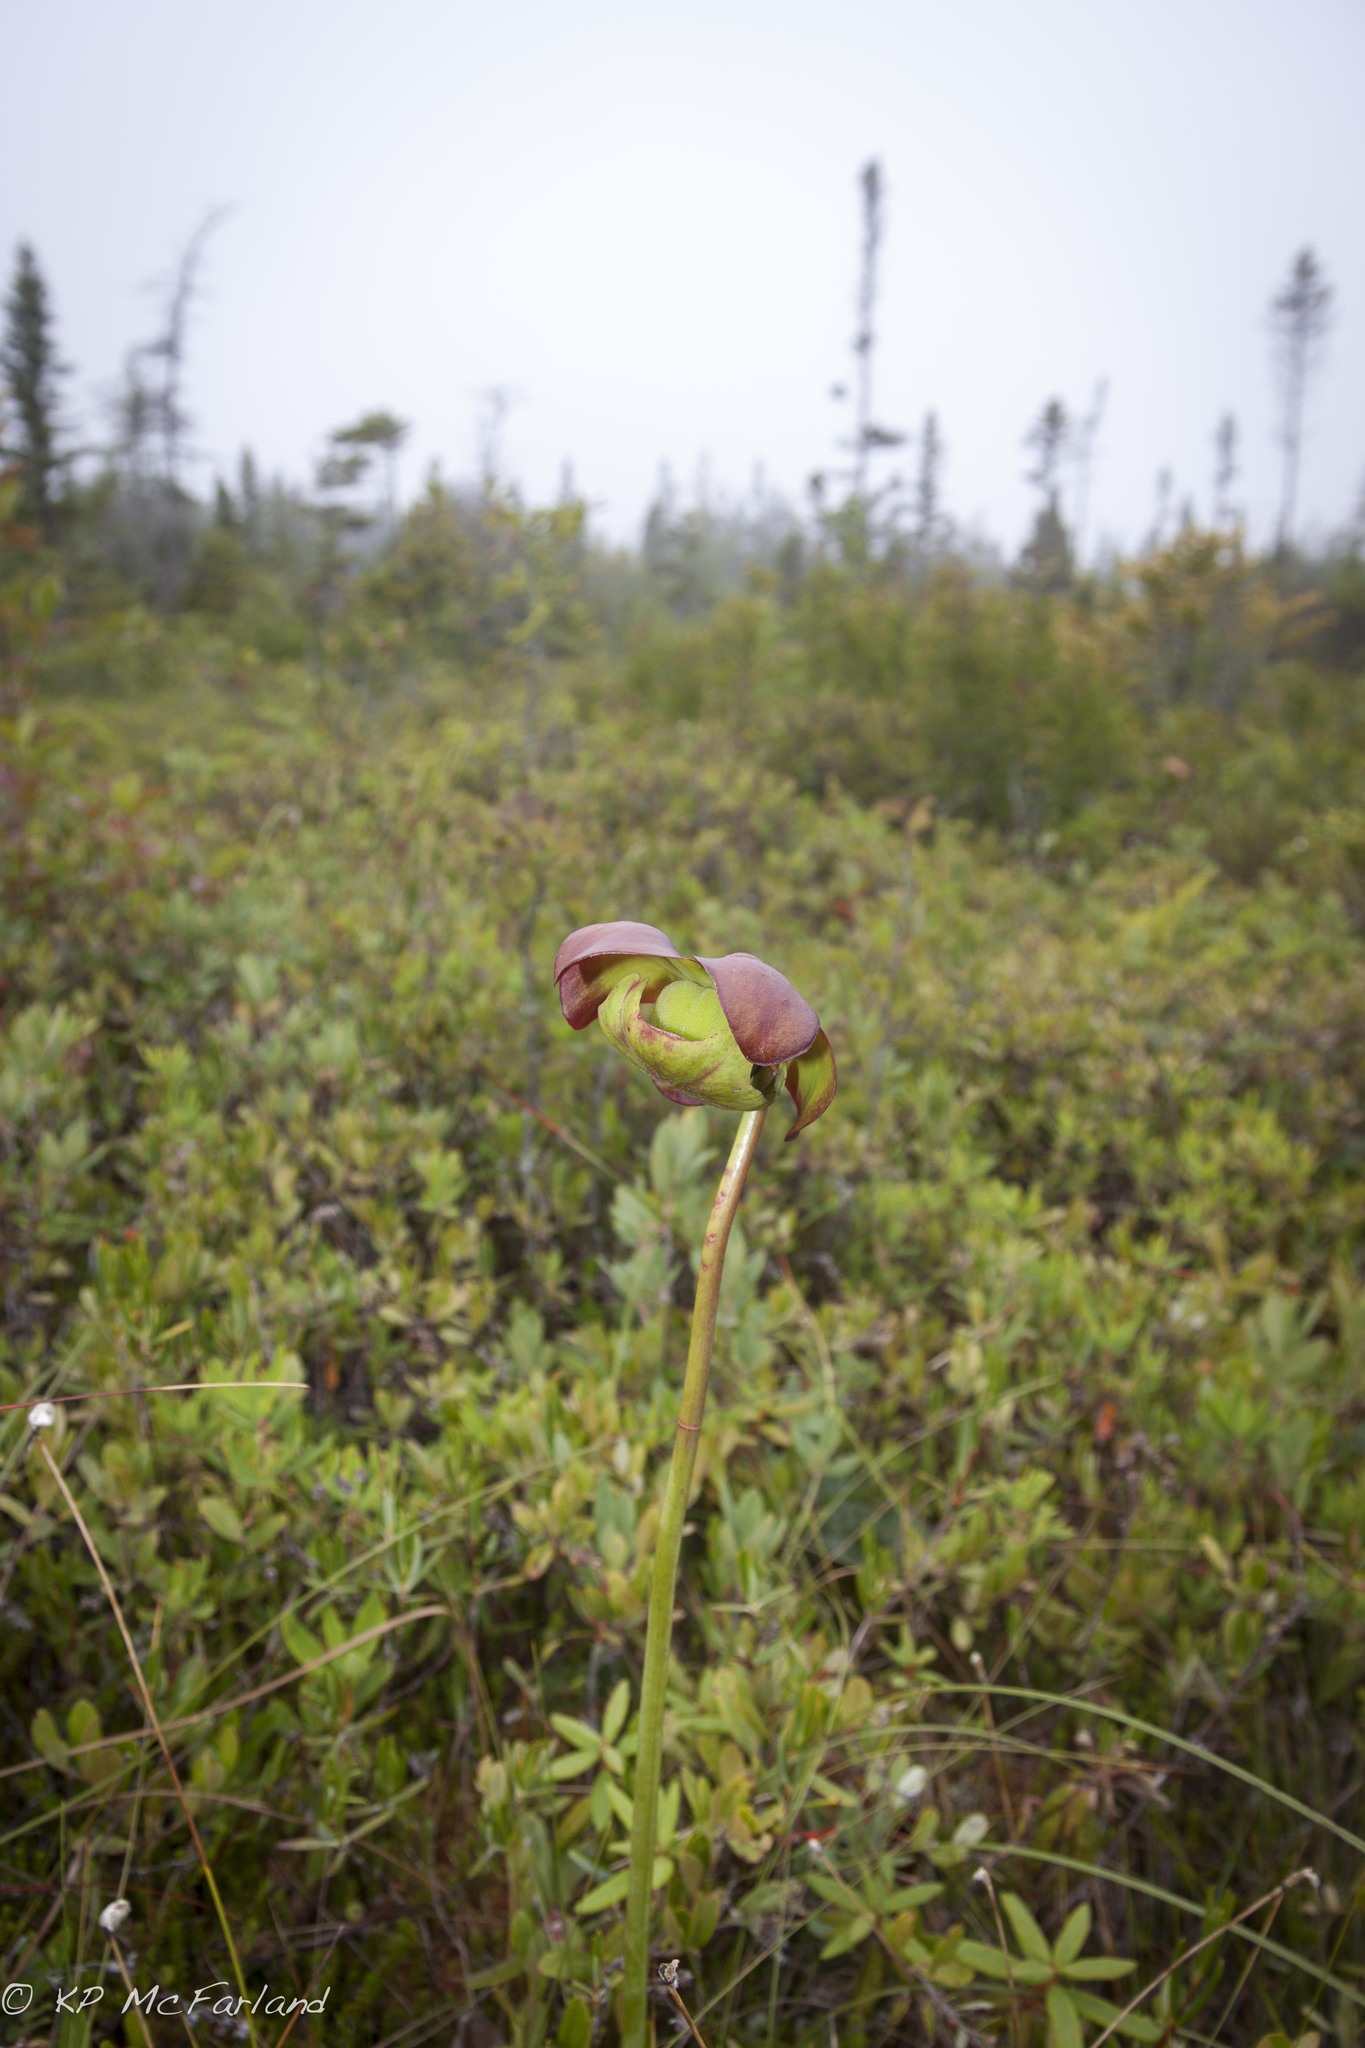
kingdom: Plantae
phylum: Tracheophyta
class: Magnoliopsida
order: Ericales
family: Sarraceniaceae
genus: Sarracenia
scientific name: Sarracenia purpurea
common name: Pitcherplant
